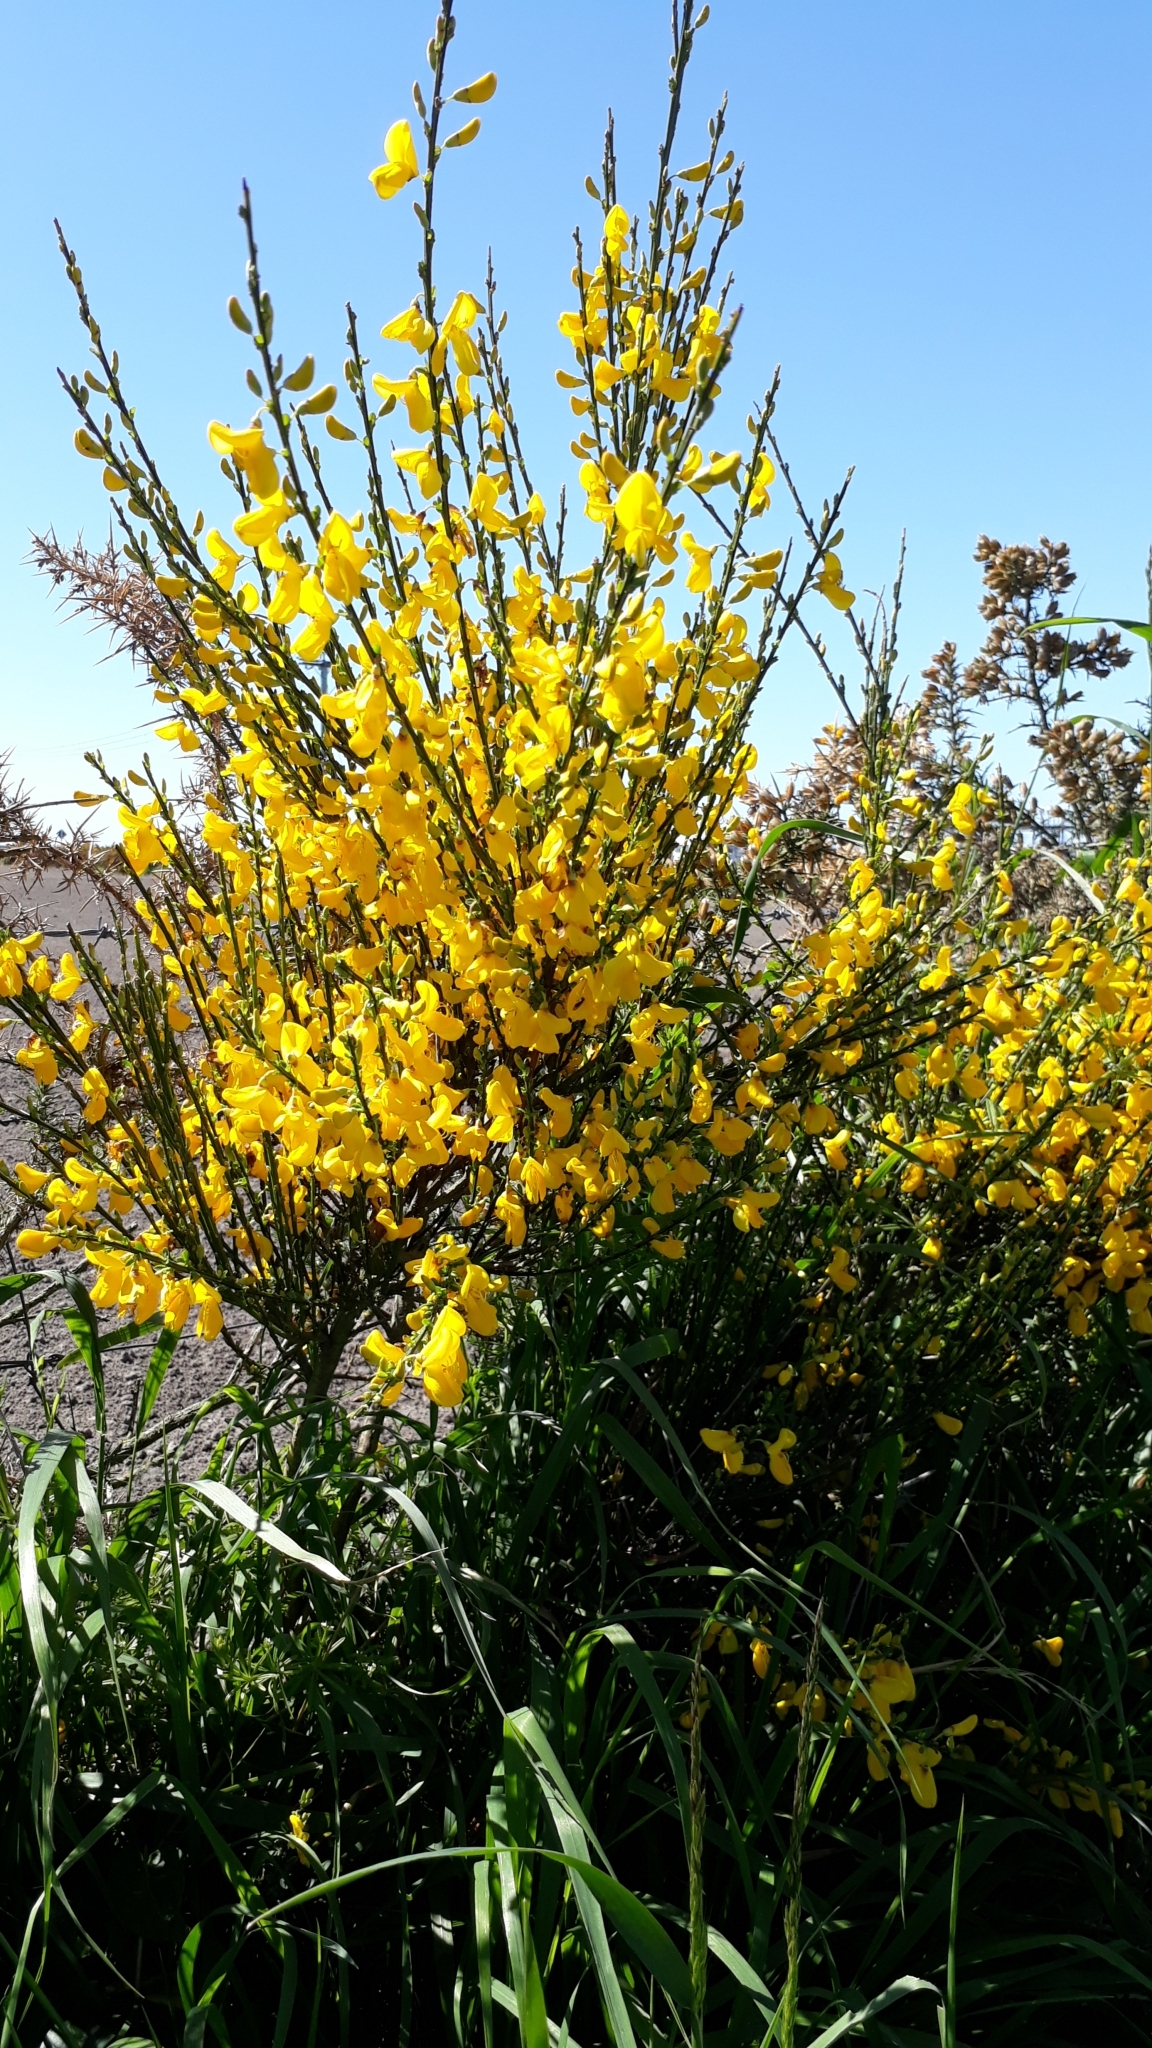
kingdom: Plantae
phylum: Tracheophyta
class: Magnoliopsida
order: Fabales
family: Fabaceae
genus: Cytisus
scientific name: Cytisus scoparius
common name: Scotch broom
